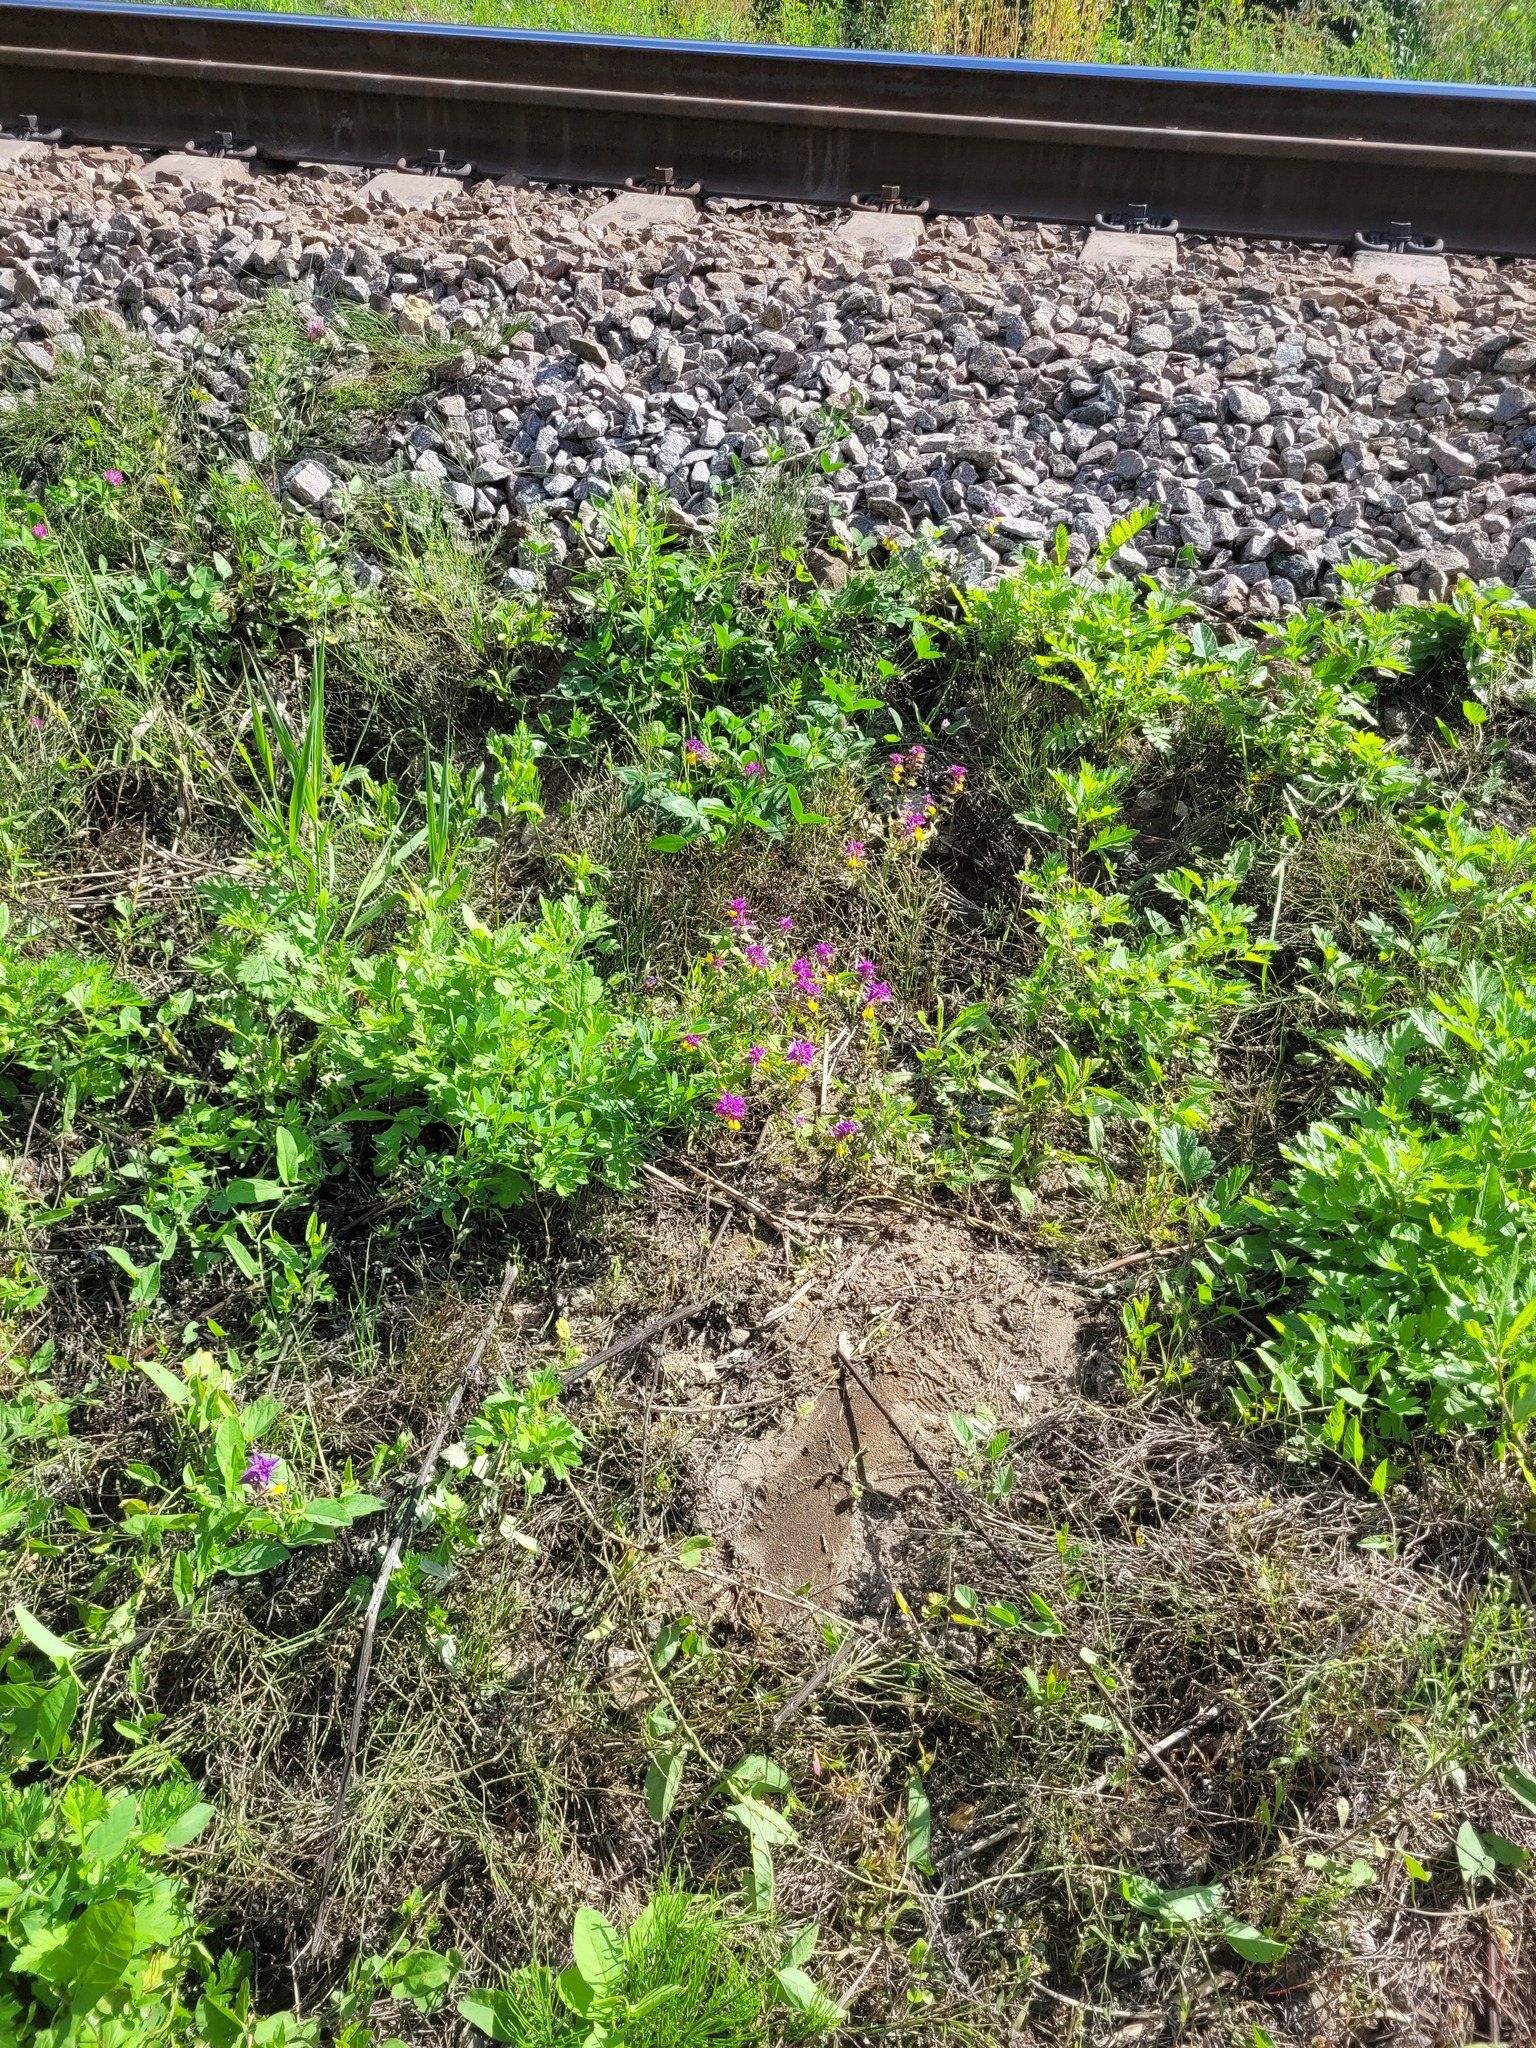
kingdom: Plantae
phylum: Tracheophyta
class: Magnoliopsida
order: Lamiales
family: Orobanchaceae
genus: Melampyrum
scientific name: Melampyrum nemorosum
